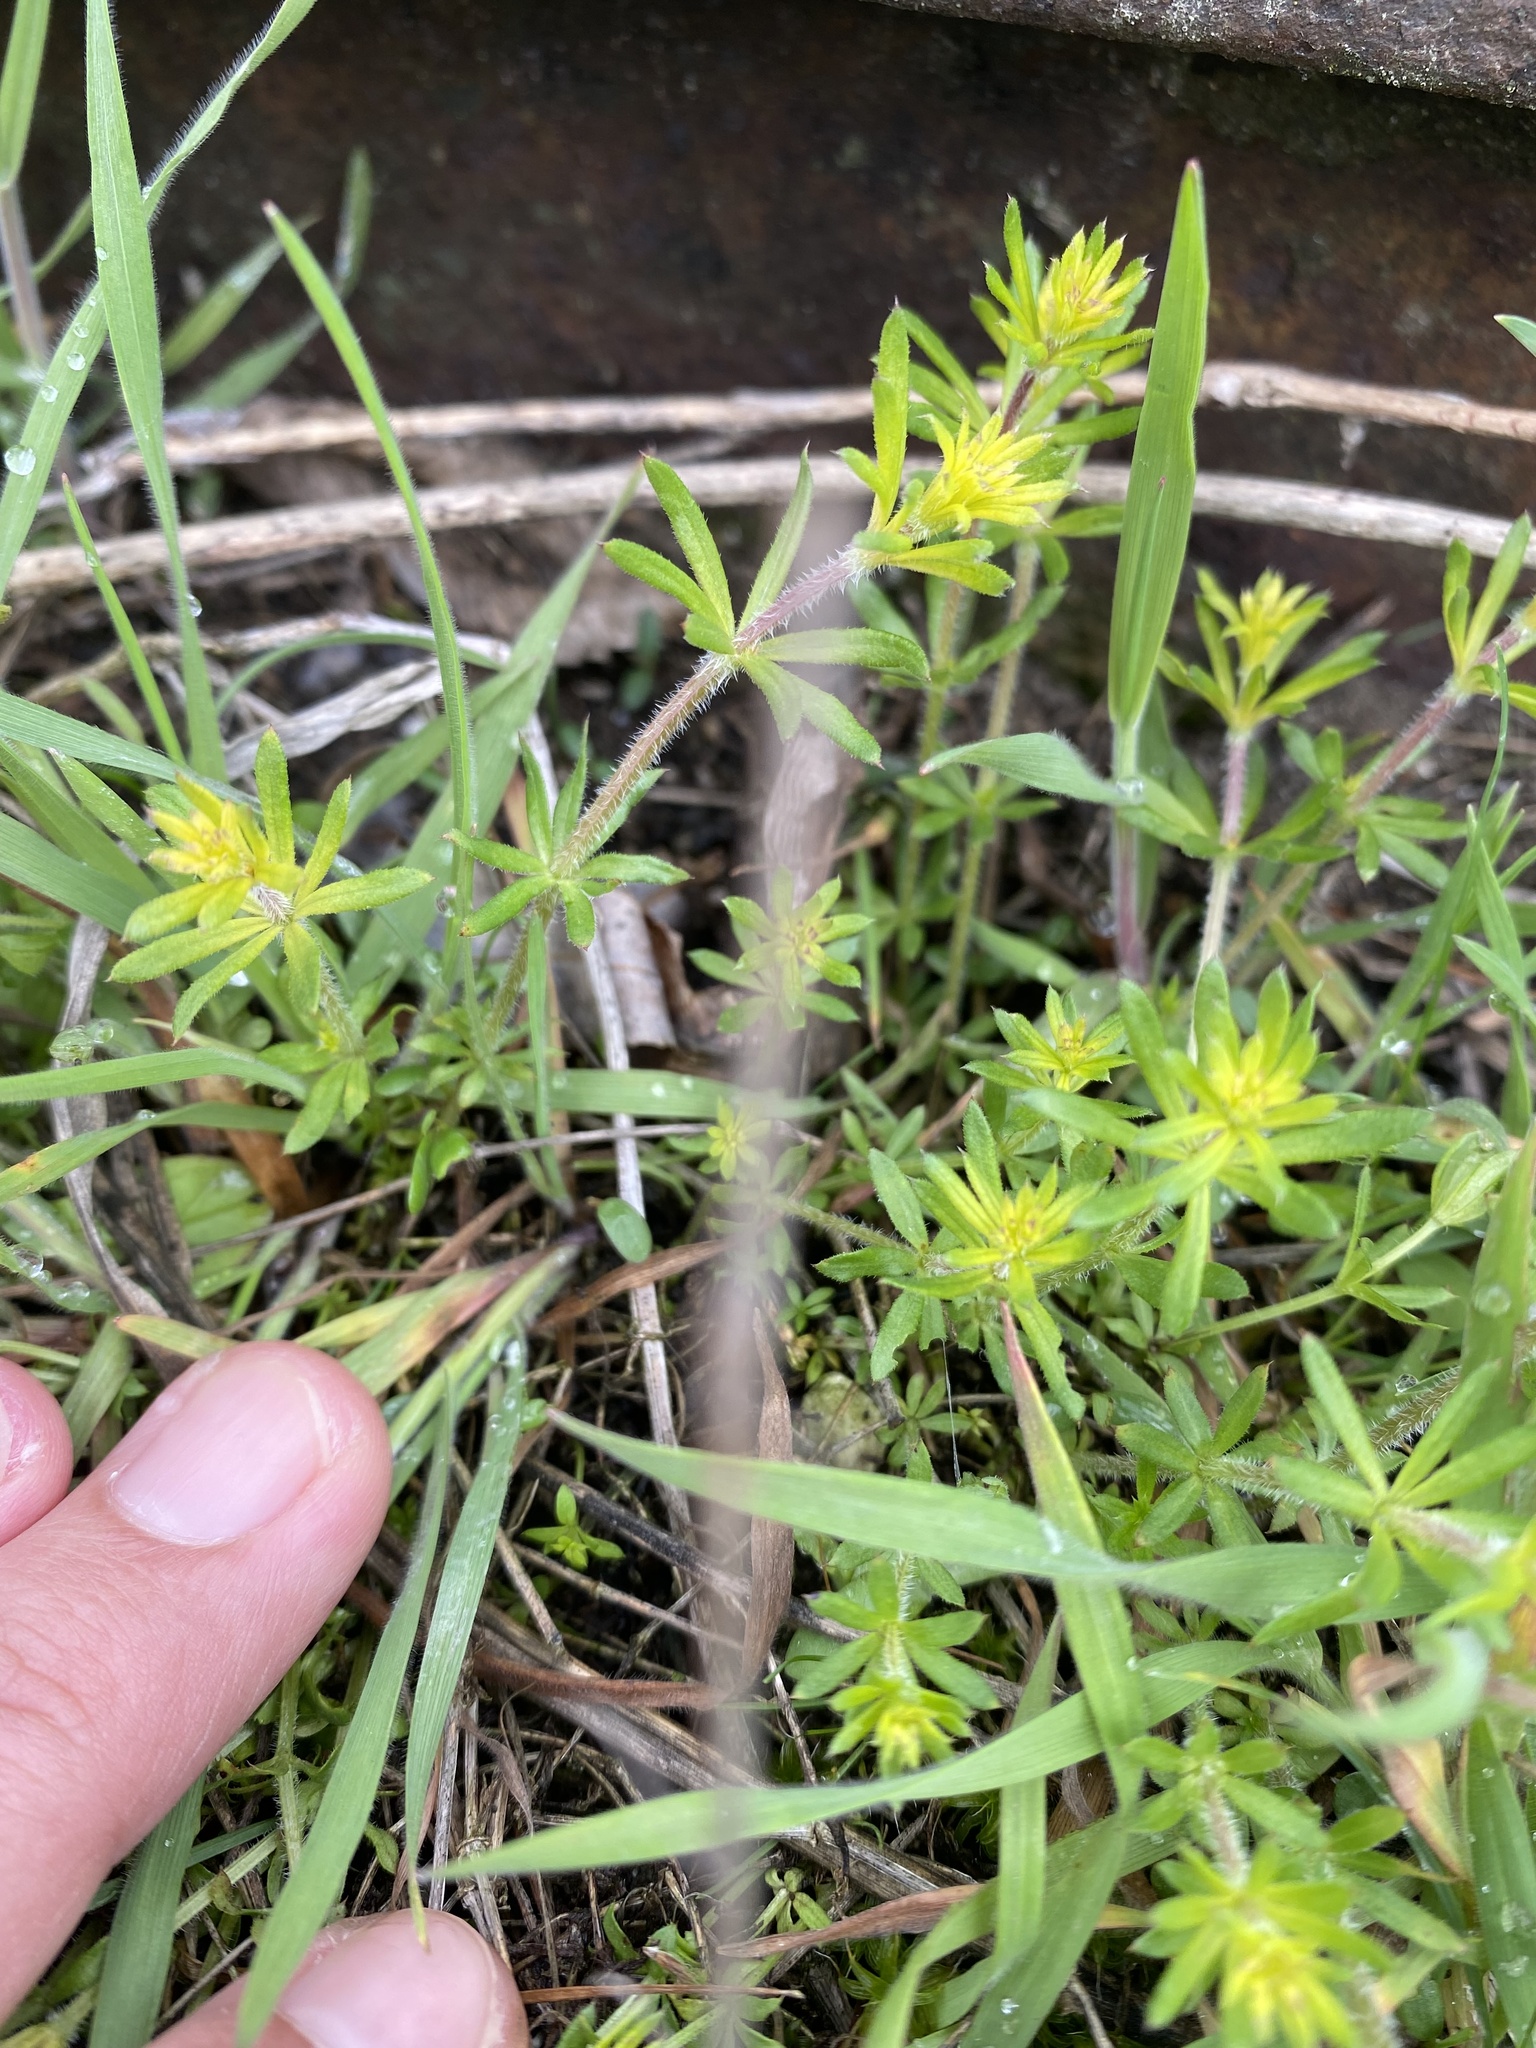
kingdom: Plantae
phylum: Tracheophyta
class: Magnoliopsida
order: Gentianales
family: Rubiaceae
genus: Galium
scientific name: Galium humifusum
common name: Spreading bedstraw
